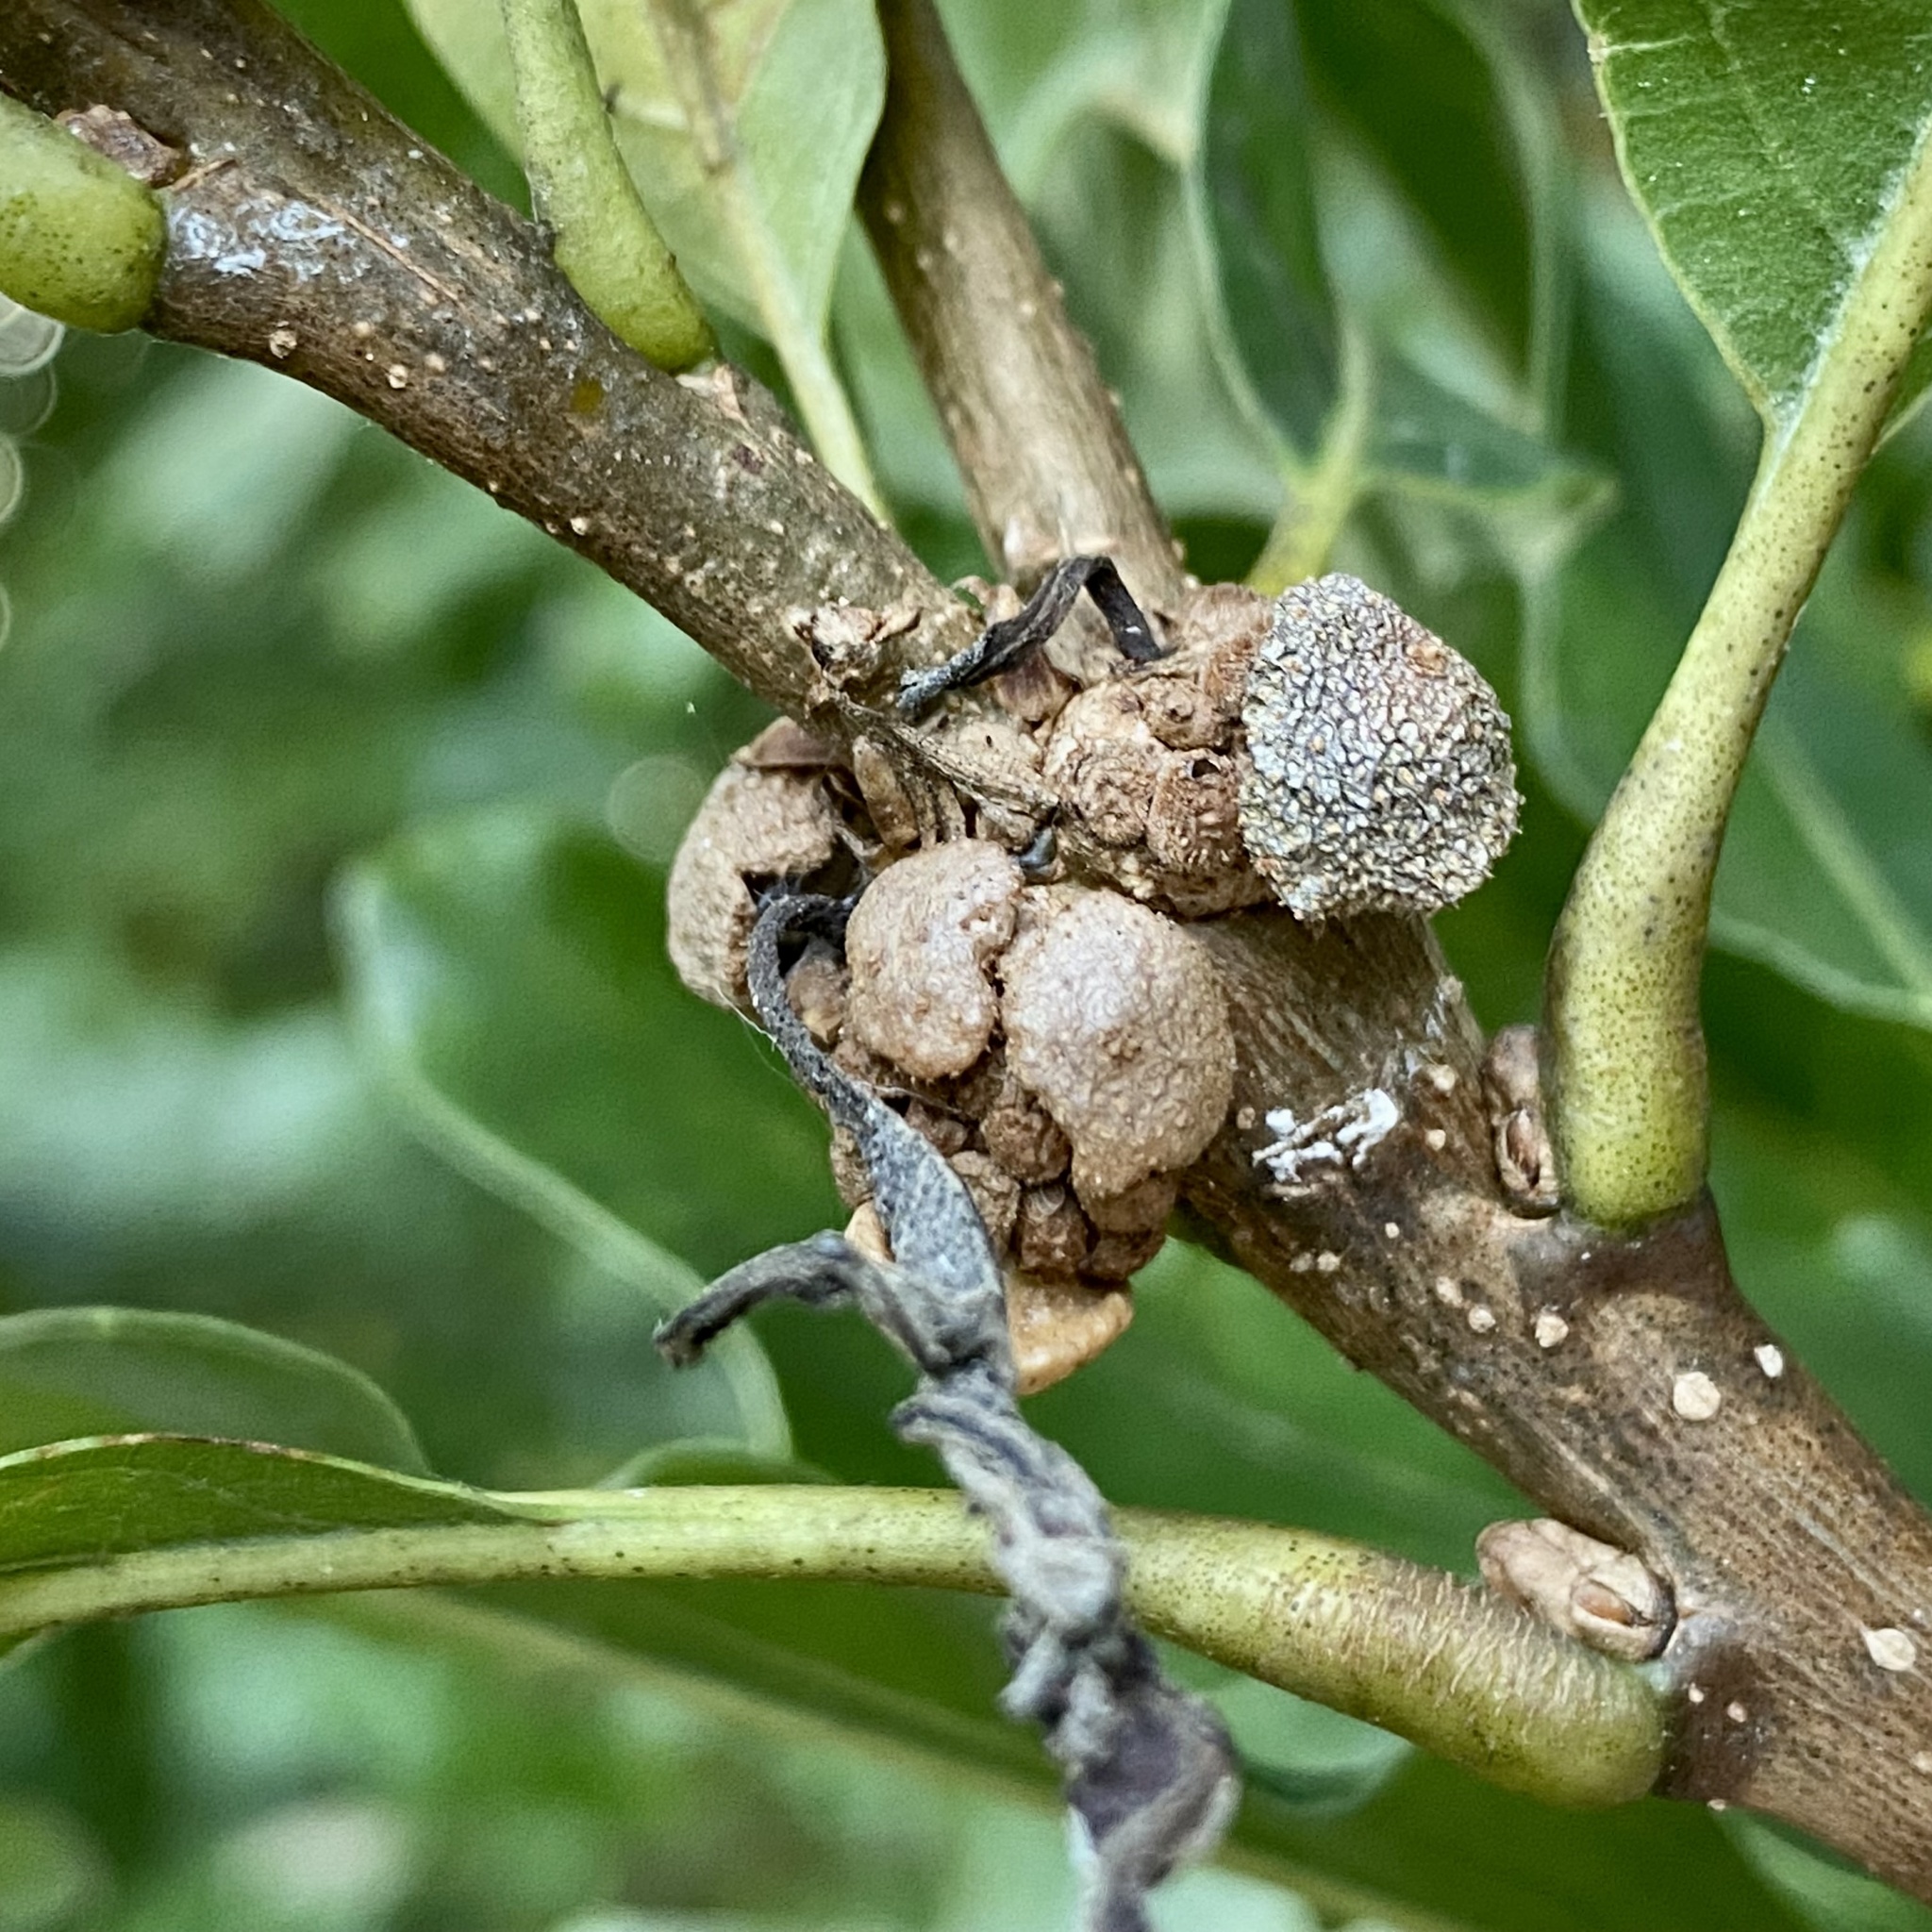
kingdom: Animalia
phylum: Arthropoda
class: Insecta
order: Hymenoptera
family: Cynipidae
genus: Andricus
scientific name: Andricus
